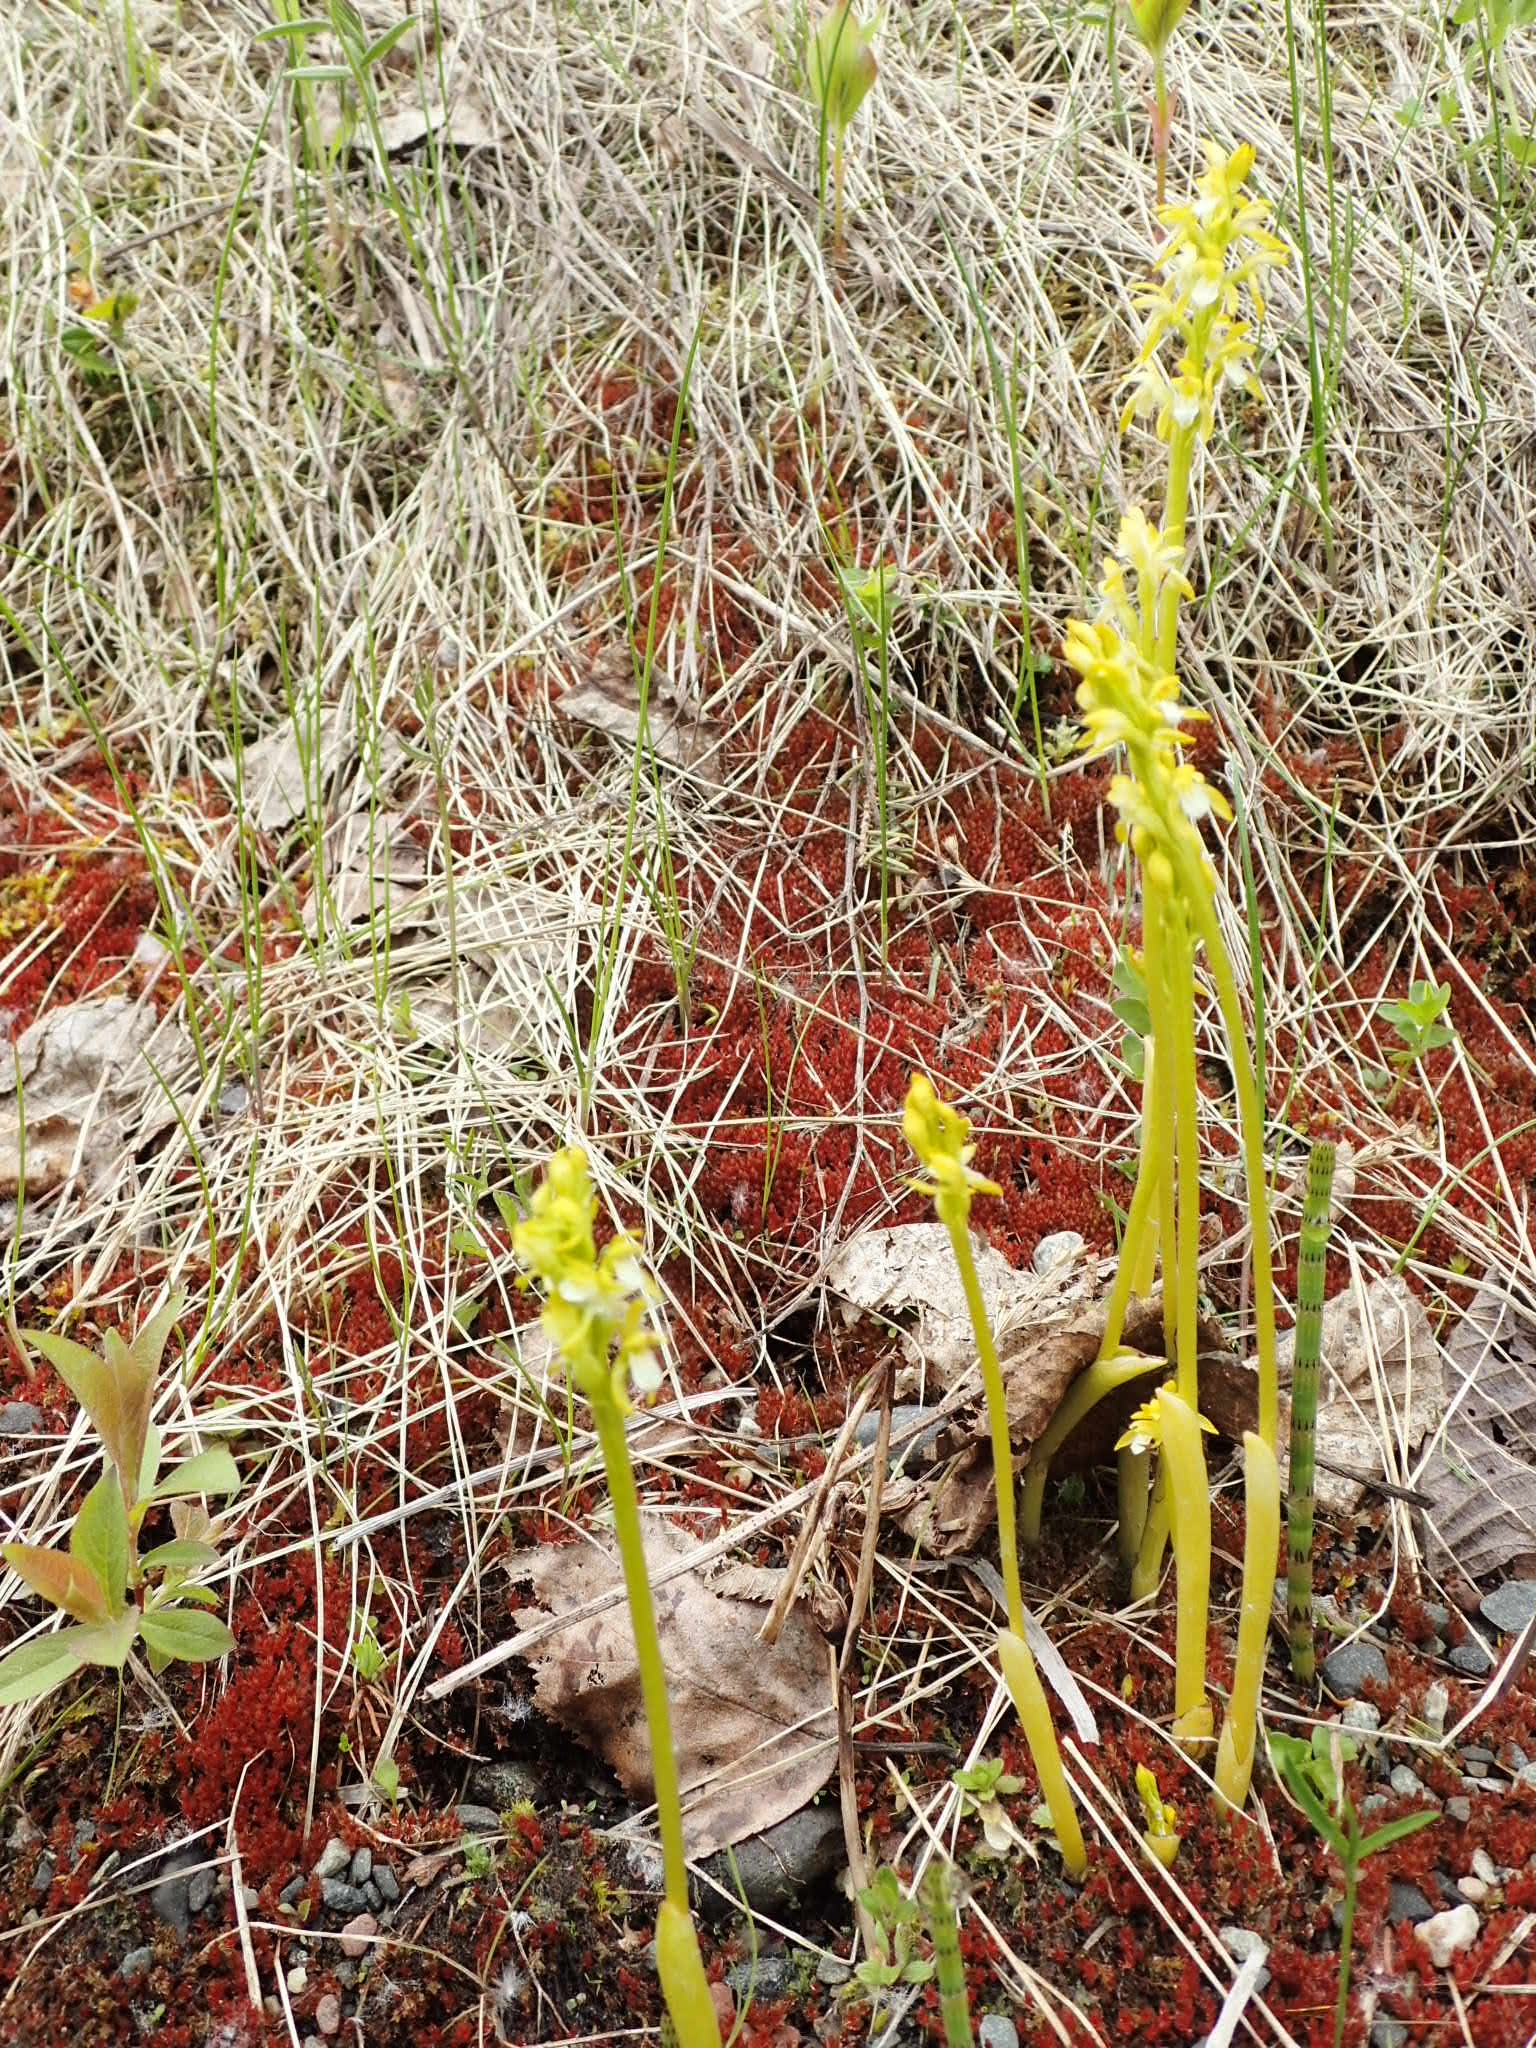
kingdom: Plantae
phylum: Tracheophyta
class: Liliopsida
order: Asparagales
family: Orchidaceae
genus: Corallorhiza
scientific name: Corallorhiza trifida
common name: Yellow coralroot
